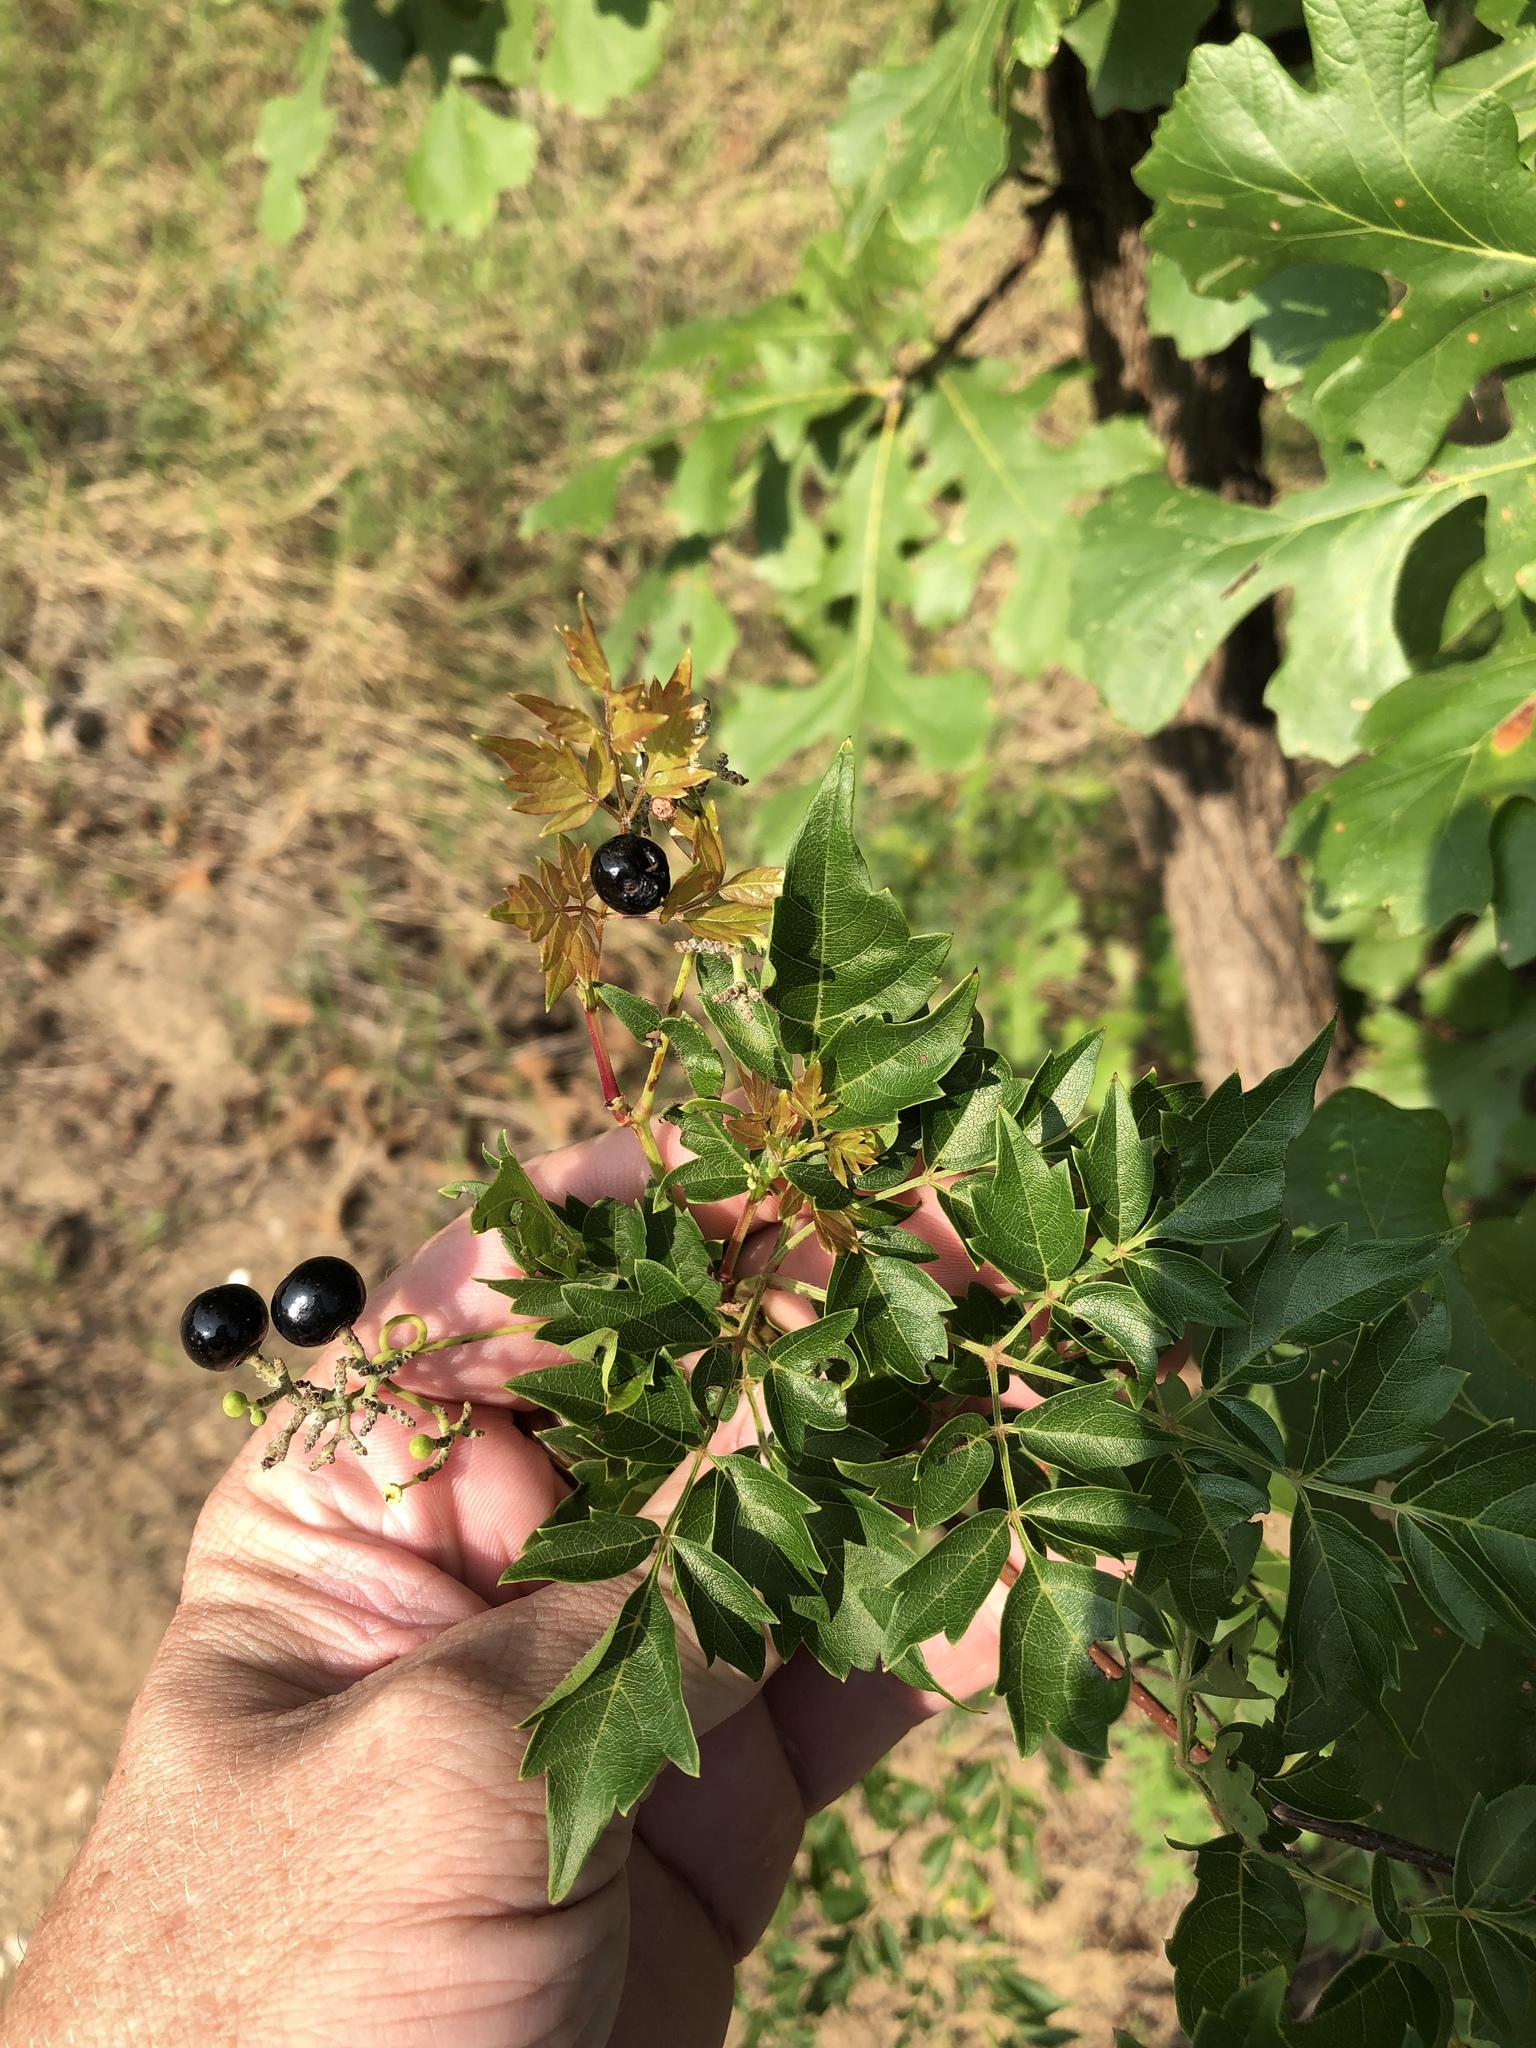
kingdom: Plantae
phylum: Tracheophyta
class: Magnoliopsida
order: Vitales
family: Vitaceae
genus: Nekemias
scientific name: Nekemias arborea
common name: Peppervine
